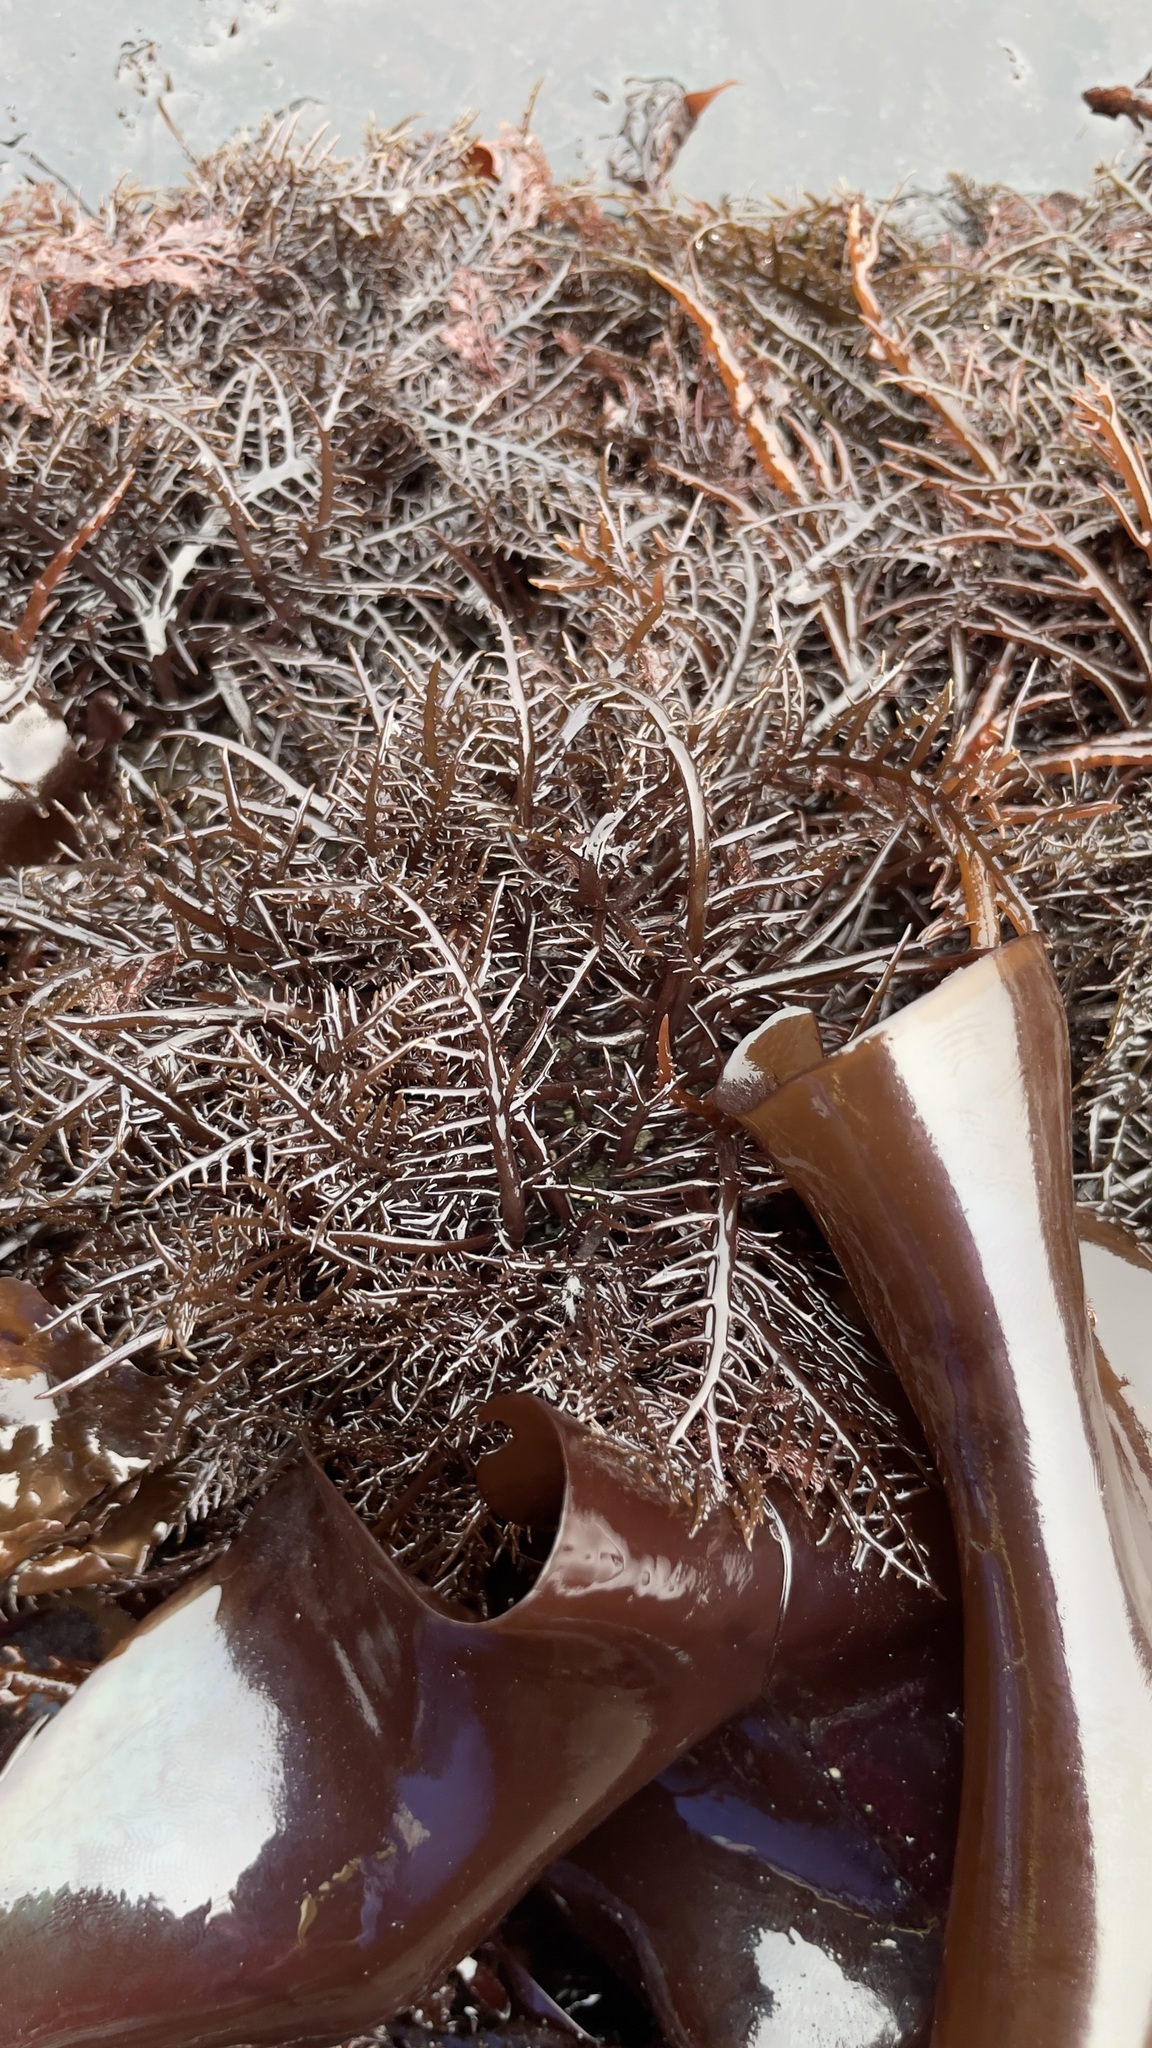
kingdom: Plantae
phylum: Rhodophyta
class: Florideophyceae
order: Gigartinales
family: Gigartinaceae
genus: Chondracanthus
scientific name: Chondracanthus canaliculatus
